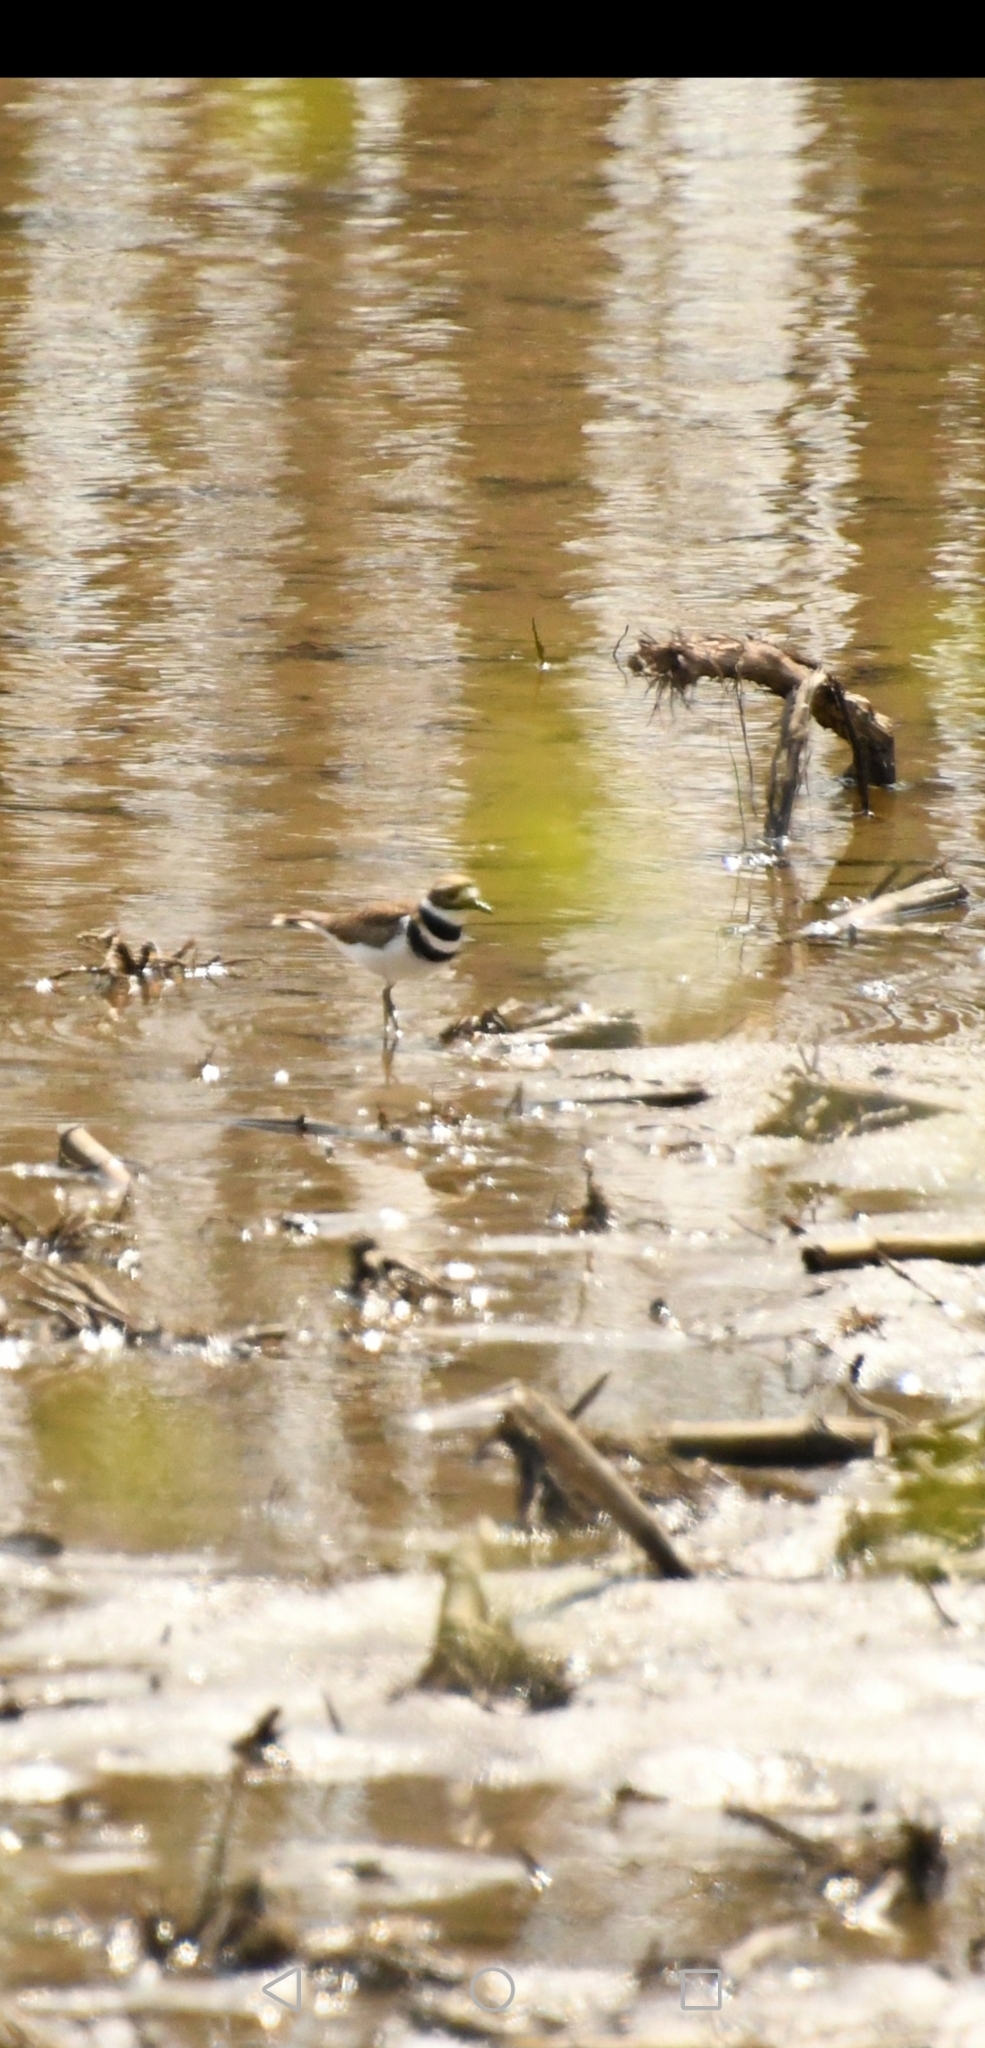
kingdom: Animalia
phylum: Chordata
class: Aves
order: Charadriiformes
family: Charadriidae
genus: Charadrius
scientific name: Charadrius vociferus
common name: Killdeer
